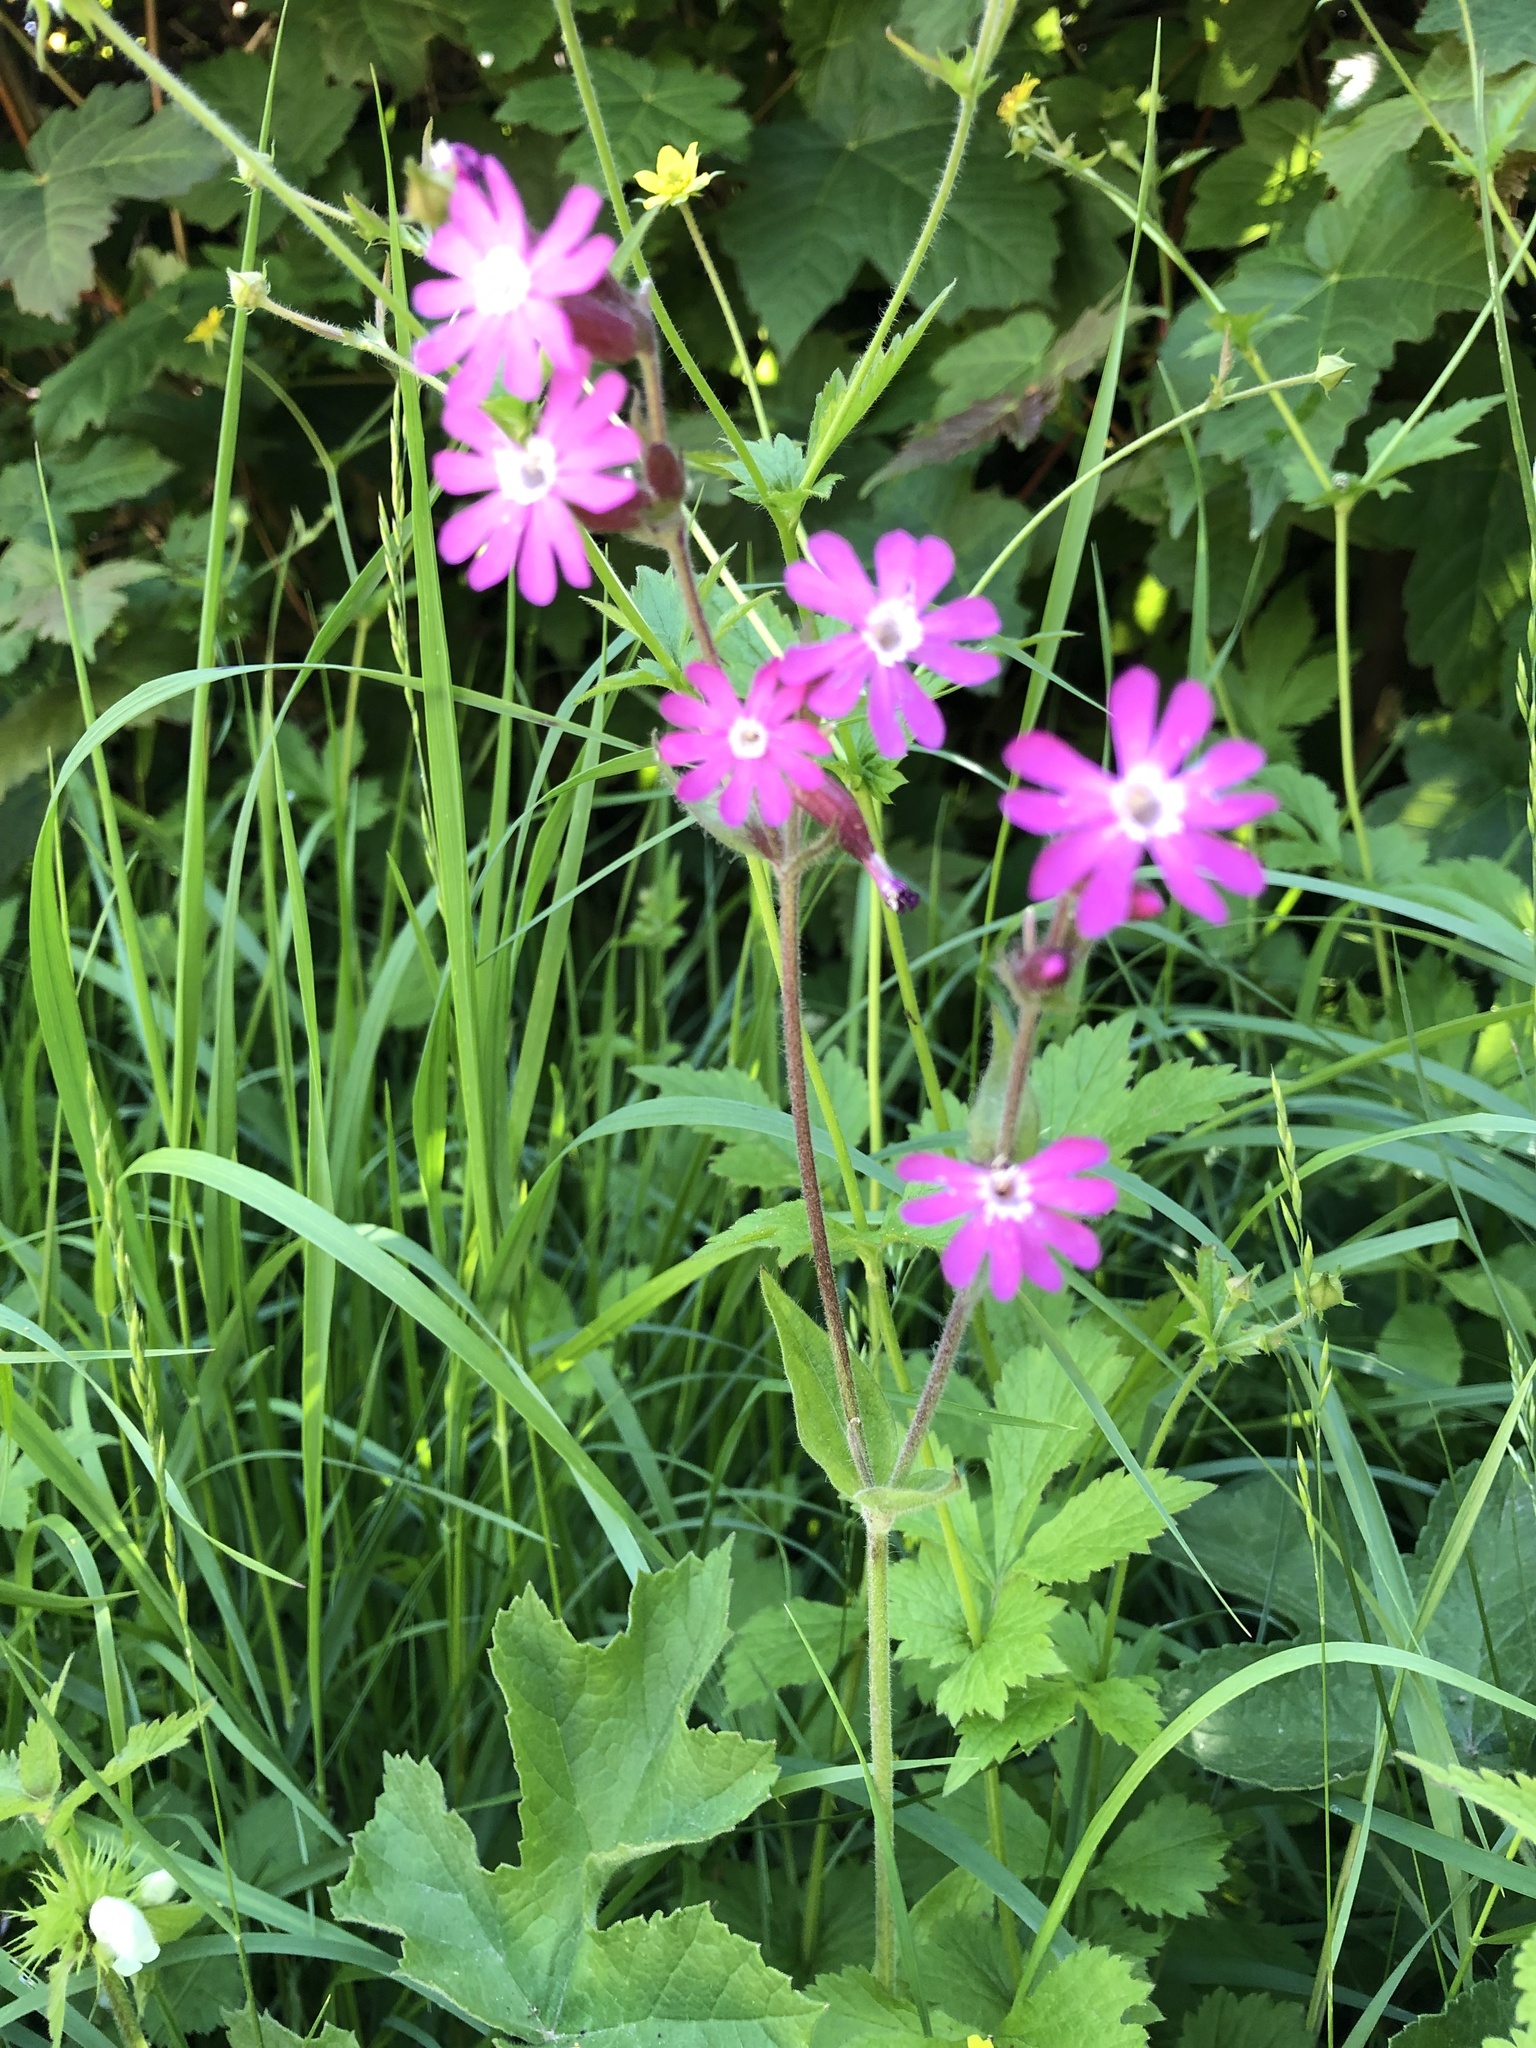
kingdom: Plantae
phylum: Tracheophyta
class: Magnoliopsida
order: Caryophyllales
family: Caryophyllaceae
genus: Silene
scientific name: Silene dioica
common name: Red campion
